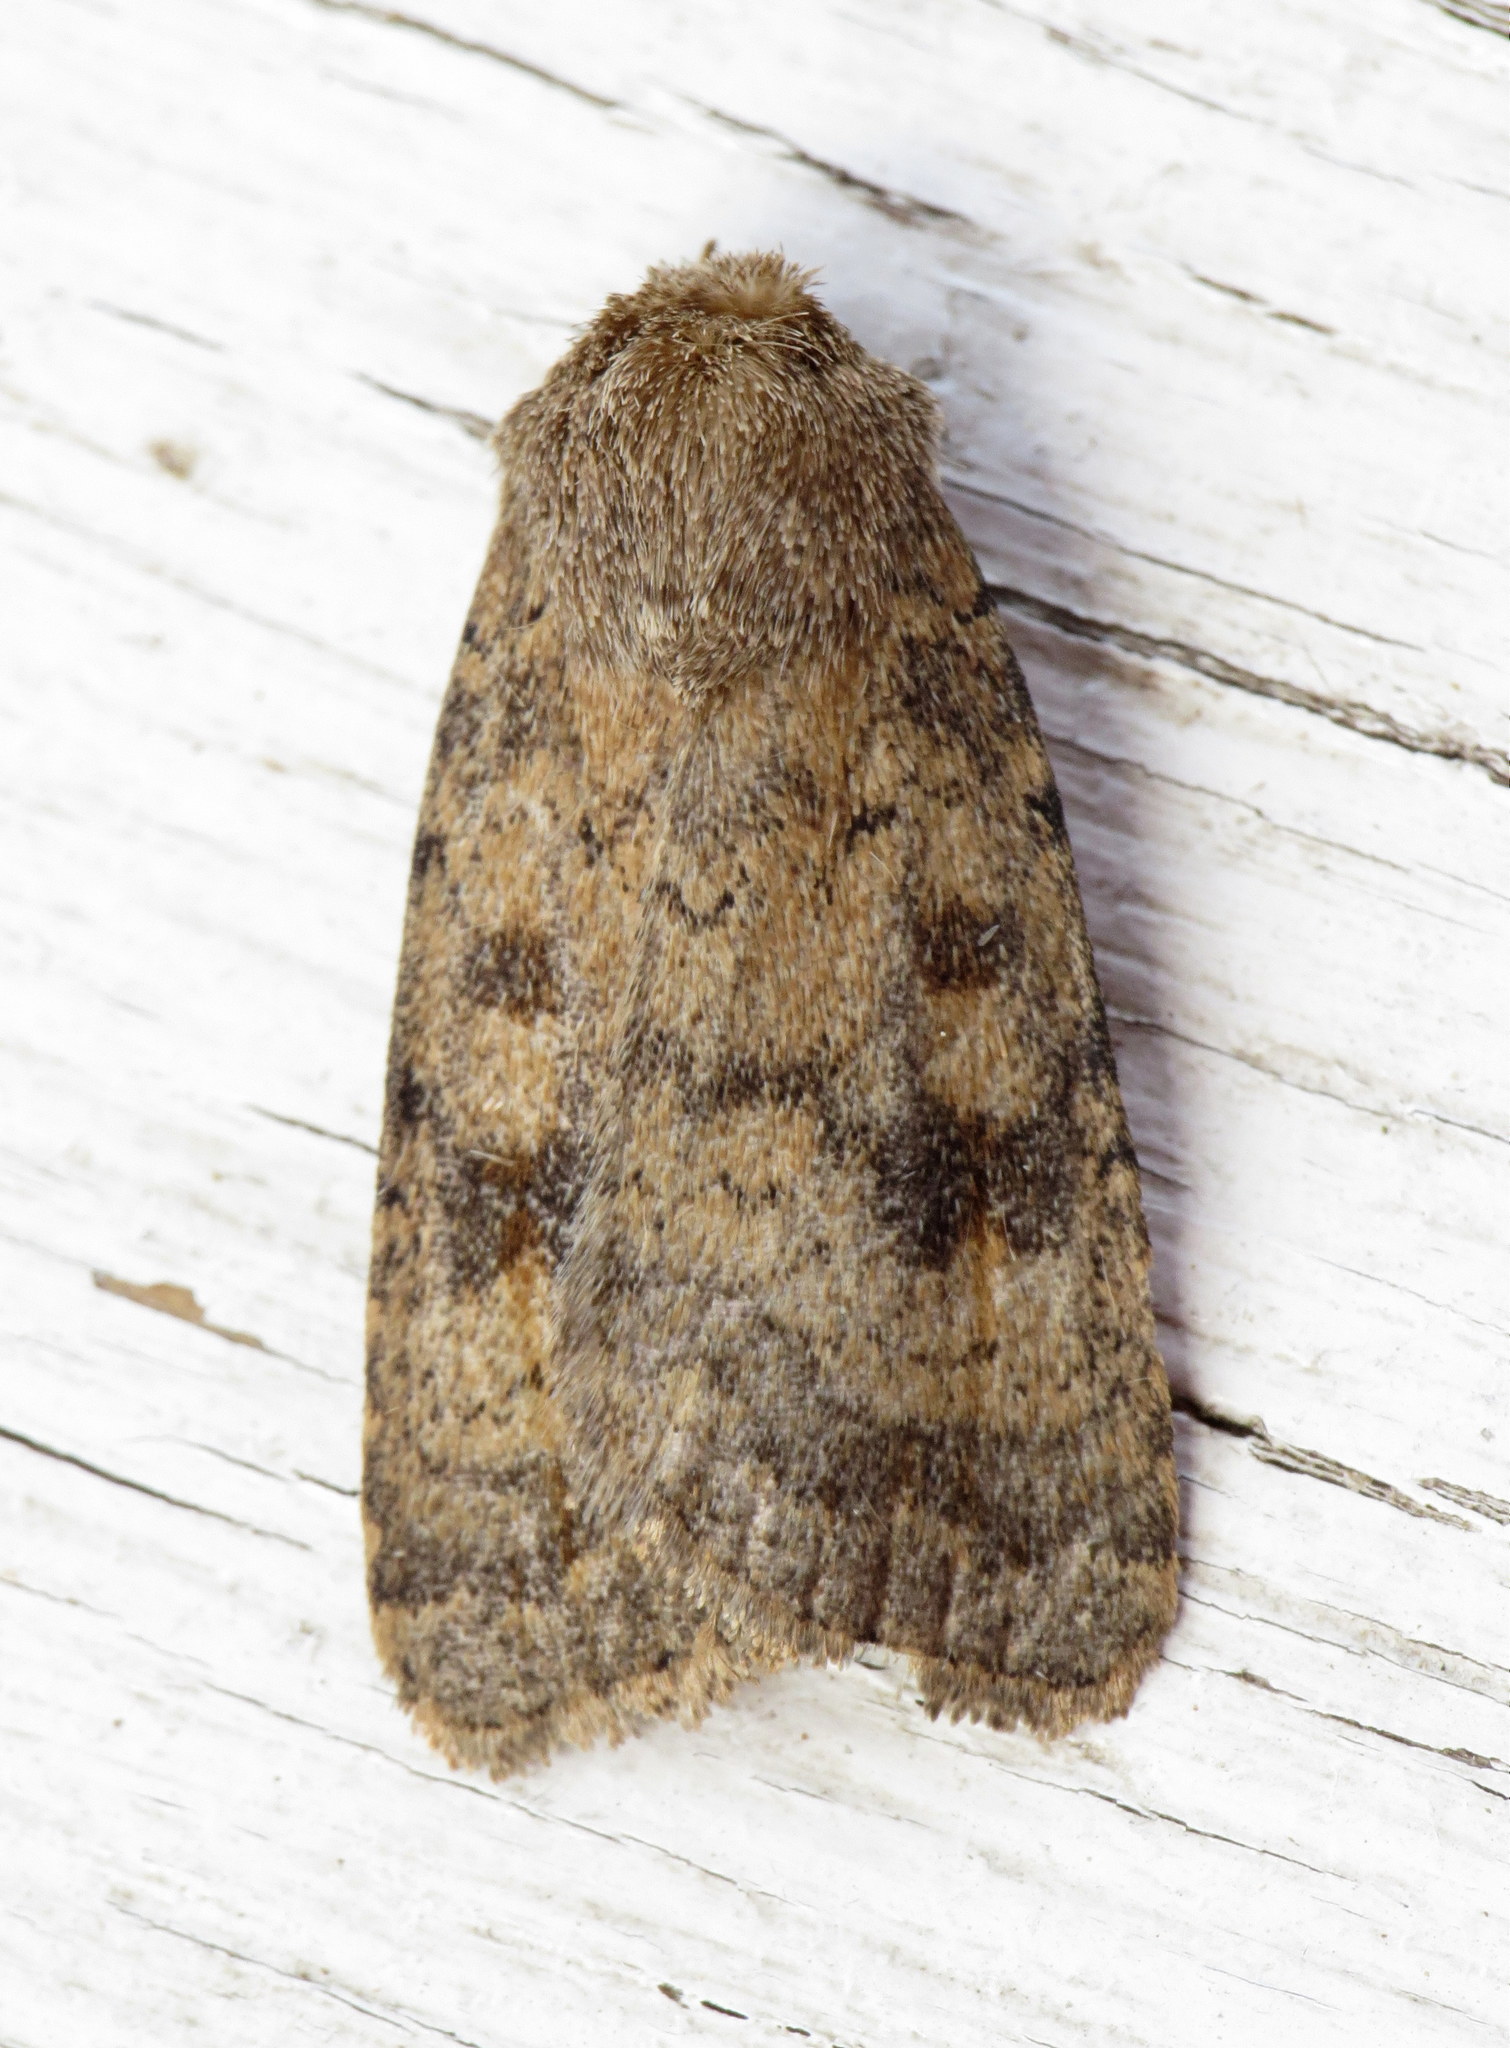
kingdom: Animalia
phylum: Arthropoda
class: Insecta
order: Lepidoptera
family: Noctuidae
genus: Caradrina
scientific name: Caradrina morpheus
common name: Mottled rustic
